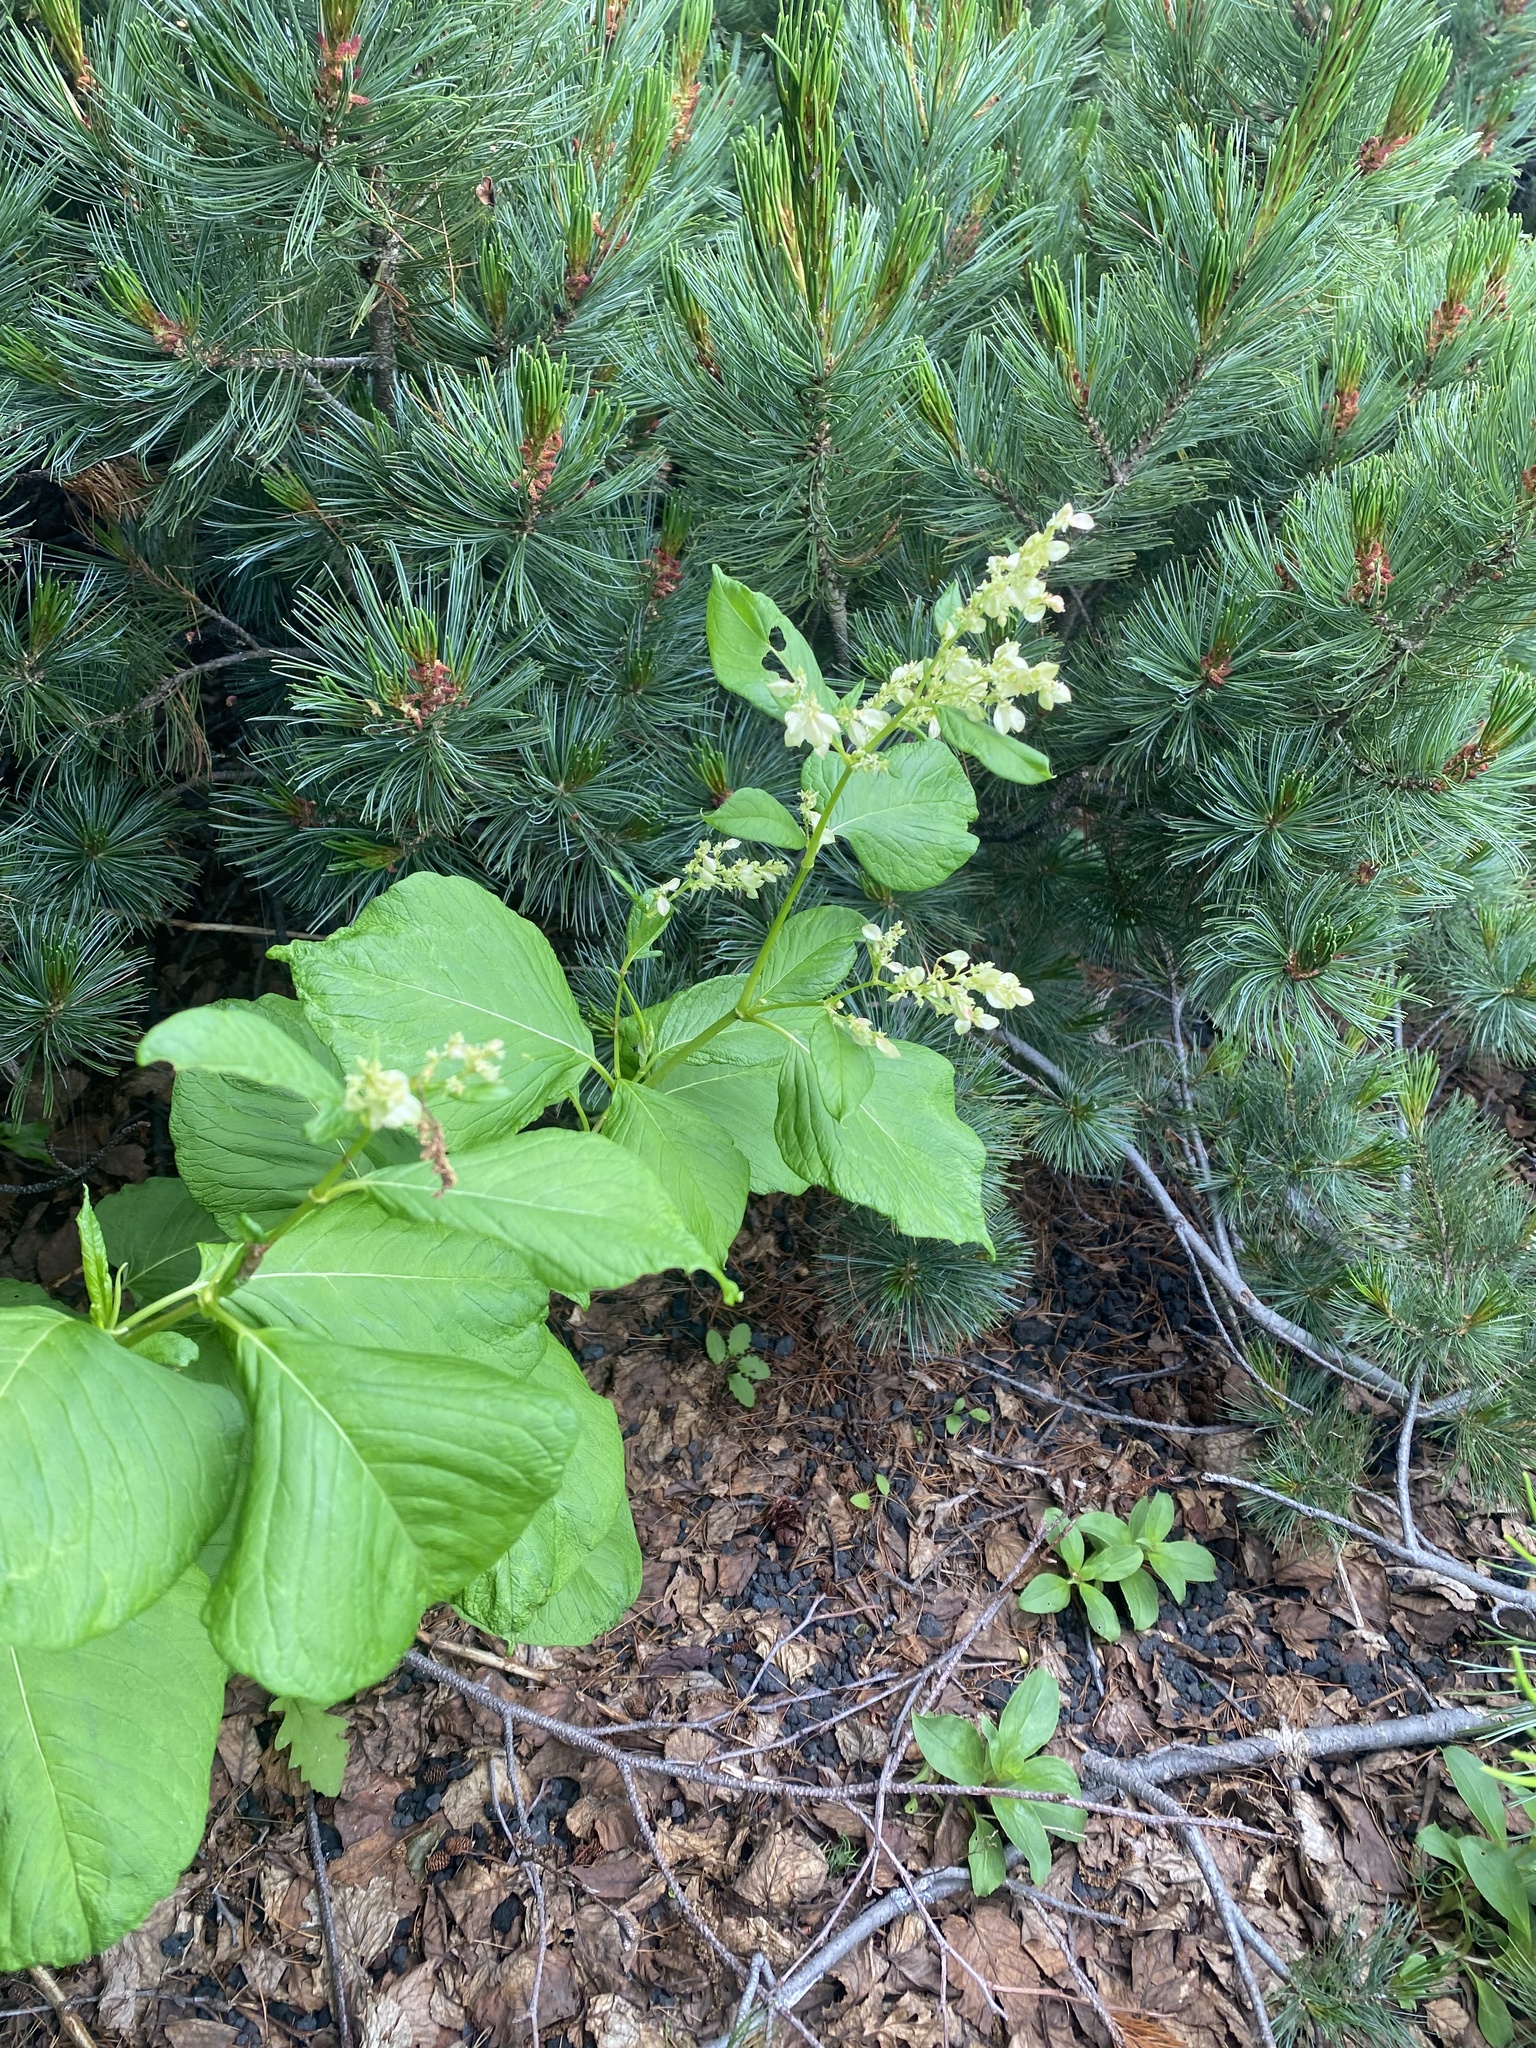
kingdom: Plantae
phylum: Tracheophyta
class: Magnoliopsida
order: Caryophyllales
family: Polygonaceae
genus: Koenigia
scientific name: Koenigia weyrichii
